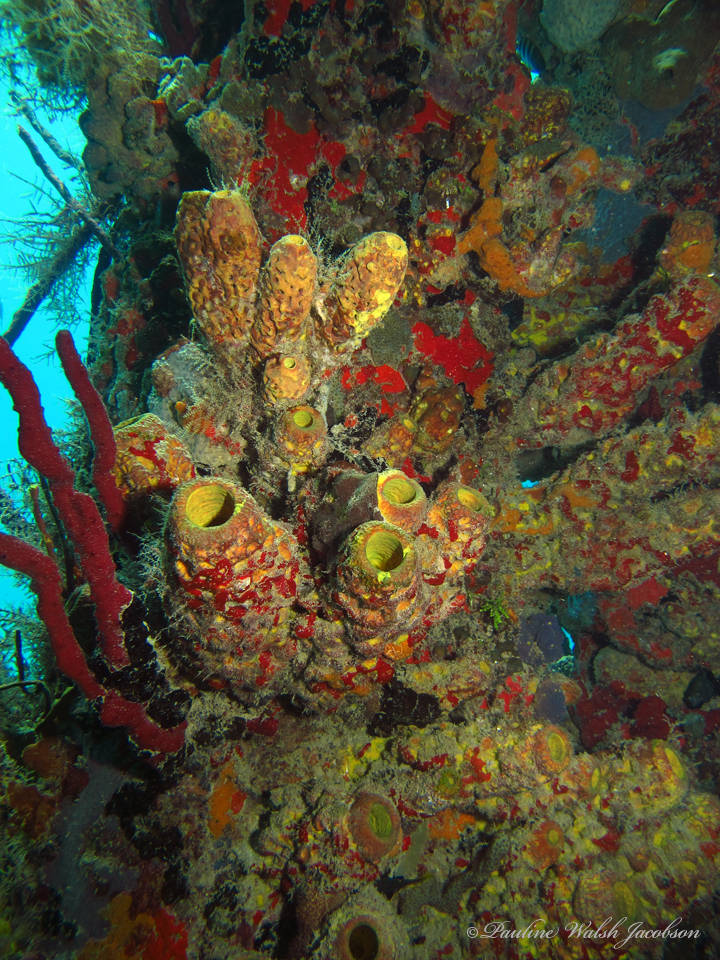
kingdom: Animalia
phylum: Porifera
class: Demospongiae
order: Verongiida
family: Aplysinidae
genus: Aplysina
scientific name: Aplysina lacunosa
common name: Convoluted barrel sponge
